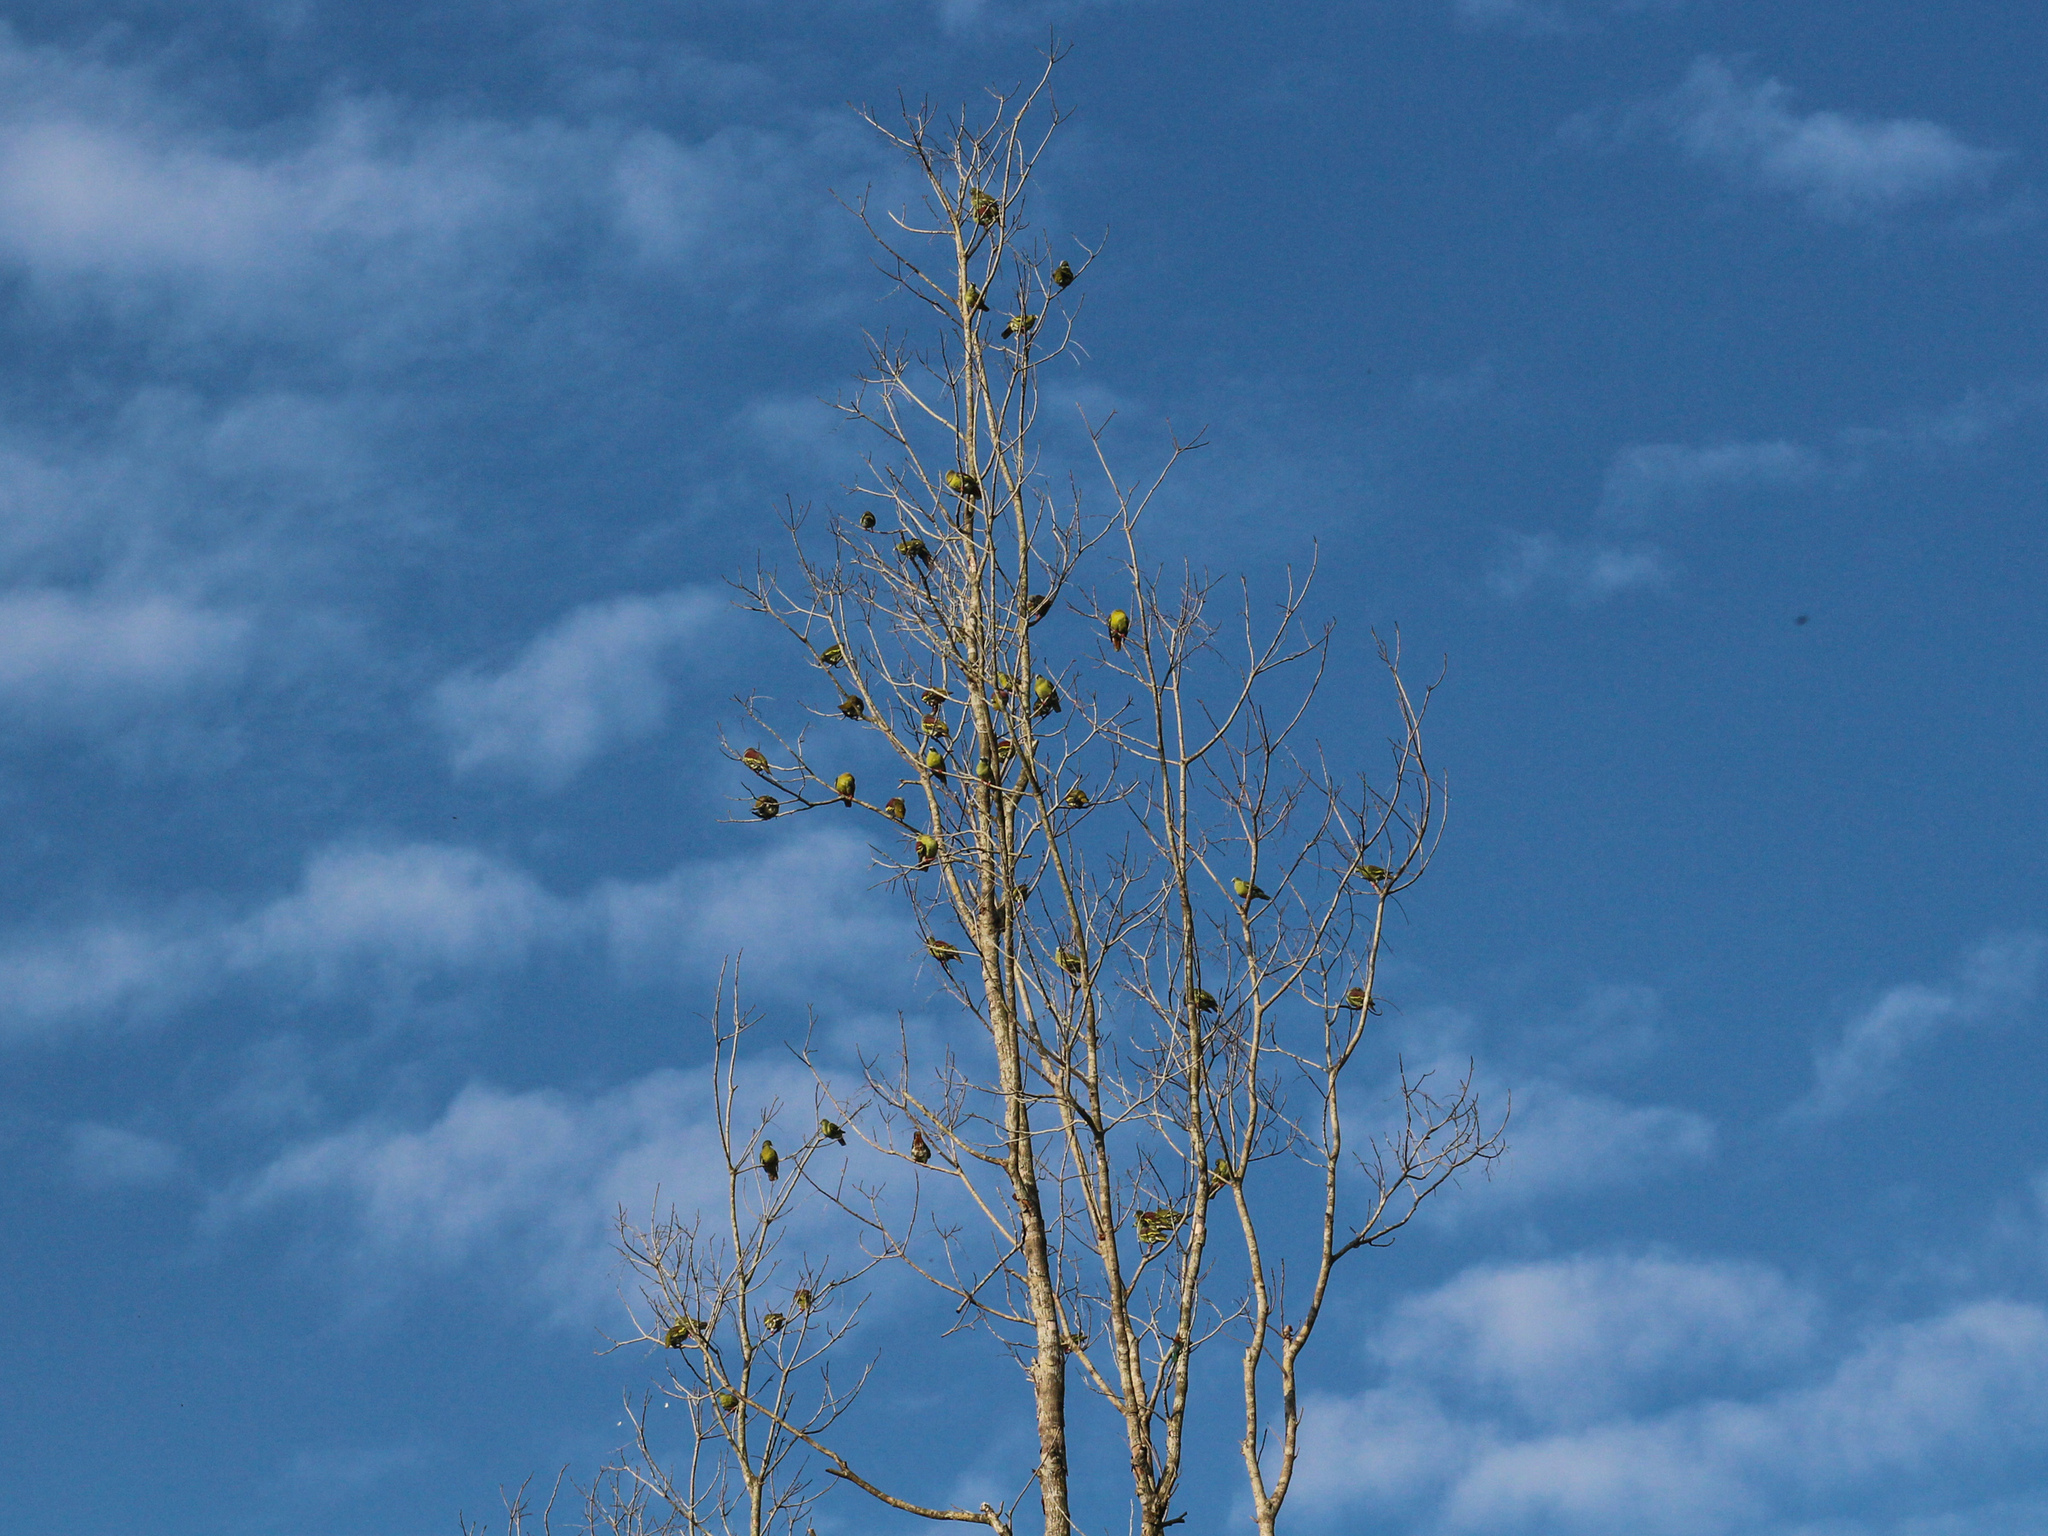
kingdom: Animalia
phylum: Chordata
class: Aves
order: Columbiformes
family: Columbidae
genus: Treron
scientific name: Treron curvirostra
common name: Thick-billed green pigeon
